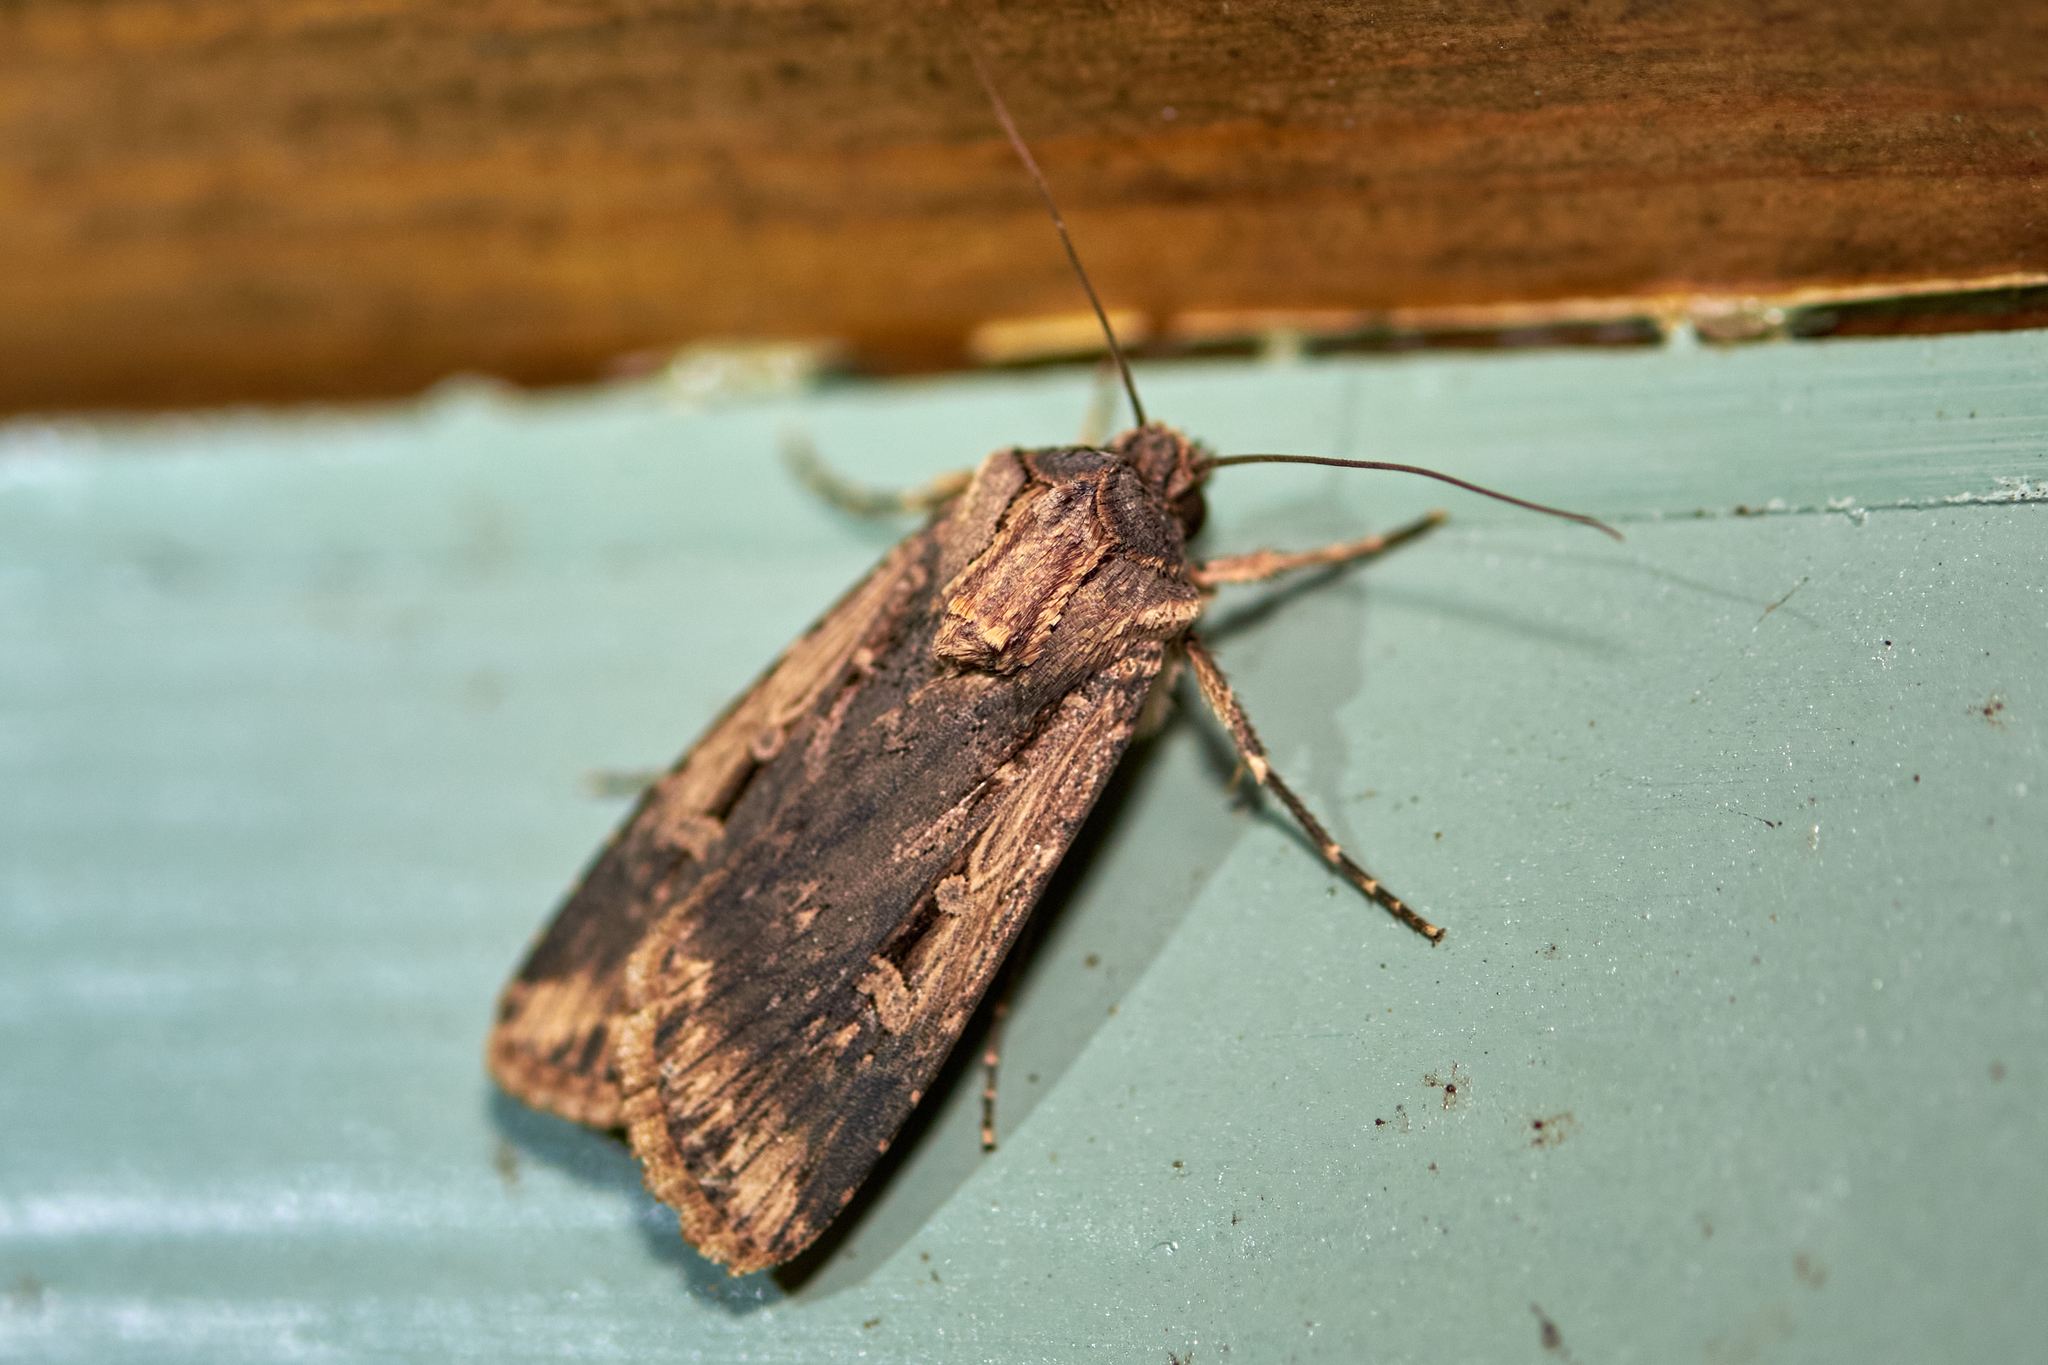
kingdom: Animalia
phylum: Arthropoda
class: Insecta
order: Lepidoptera
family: Noctuidae
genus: Feltia
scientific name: Feltia subterranea
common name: Granulate cutworm
